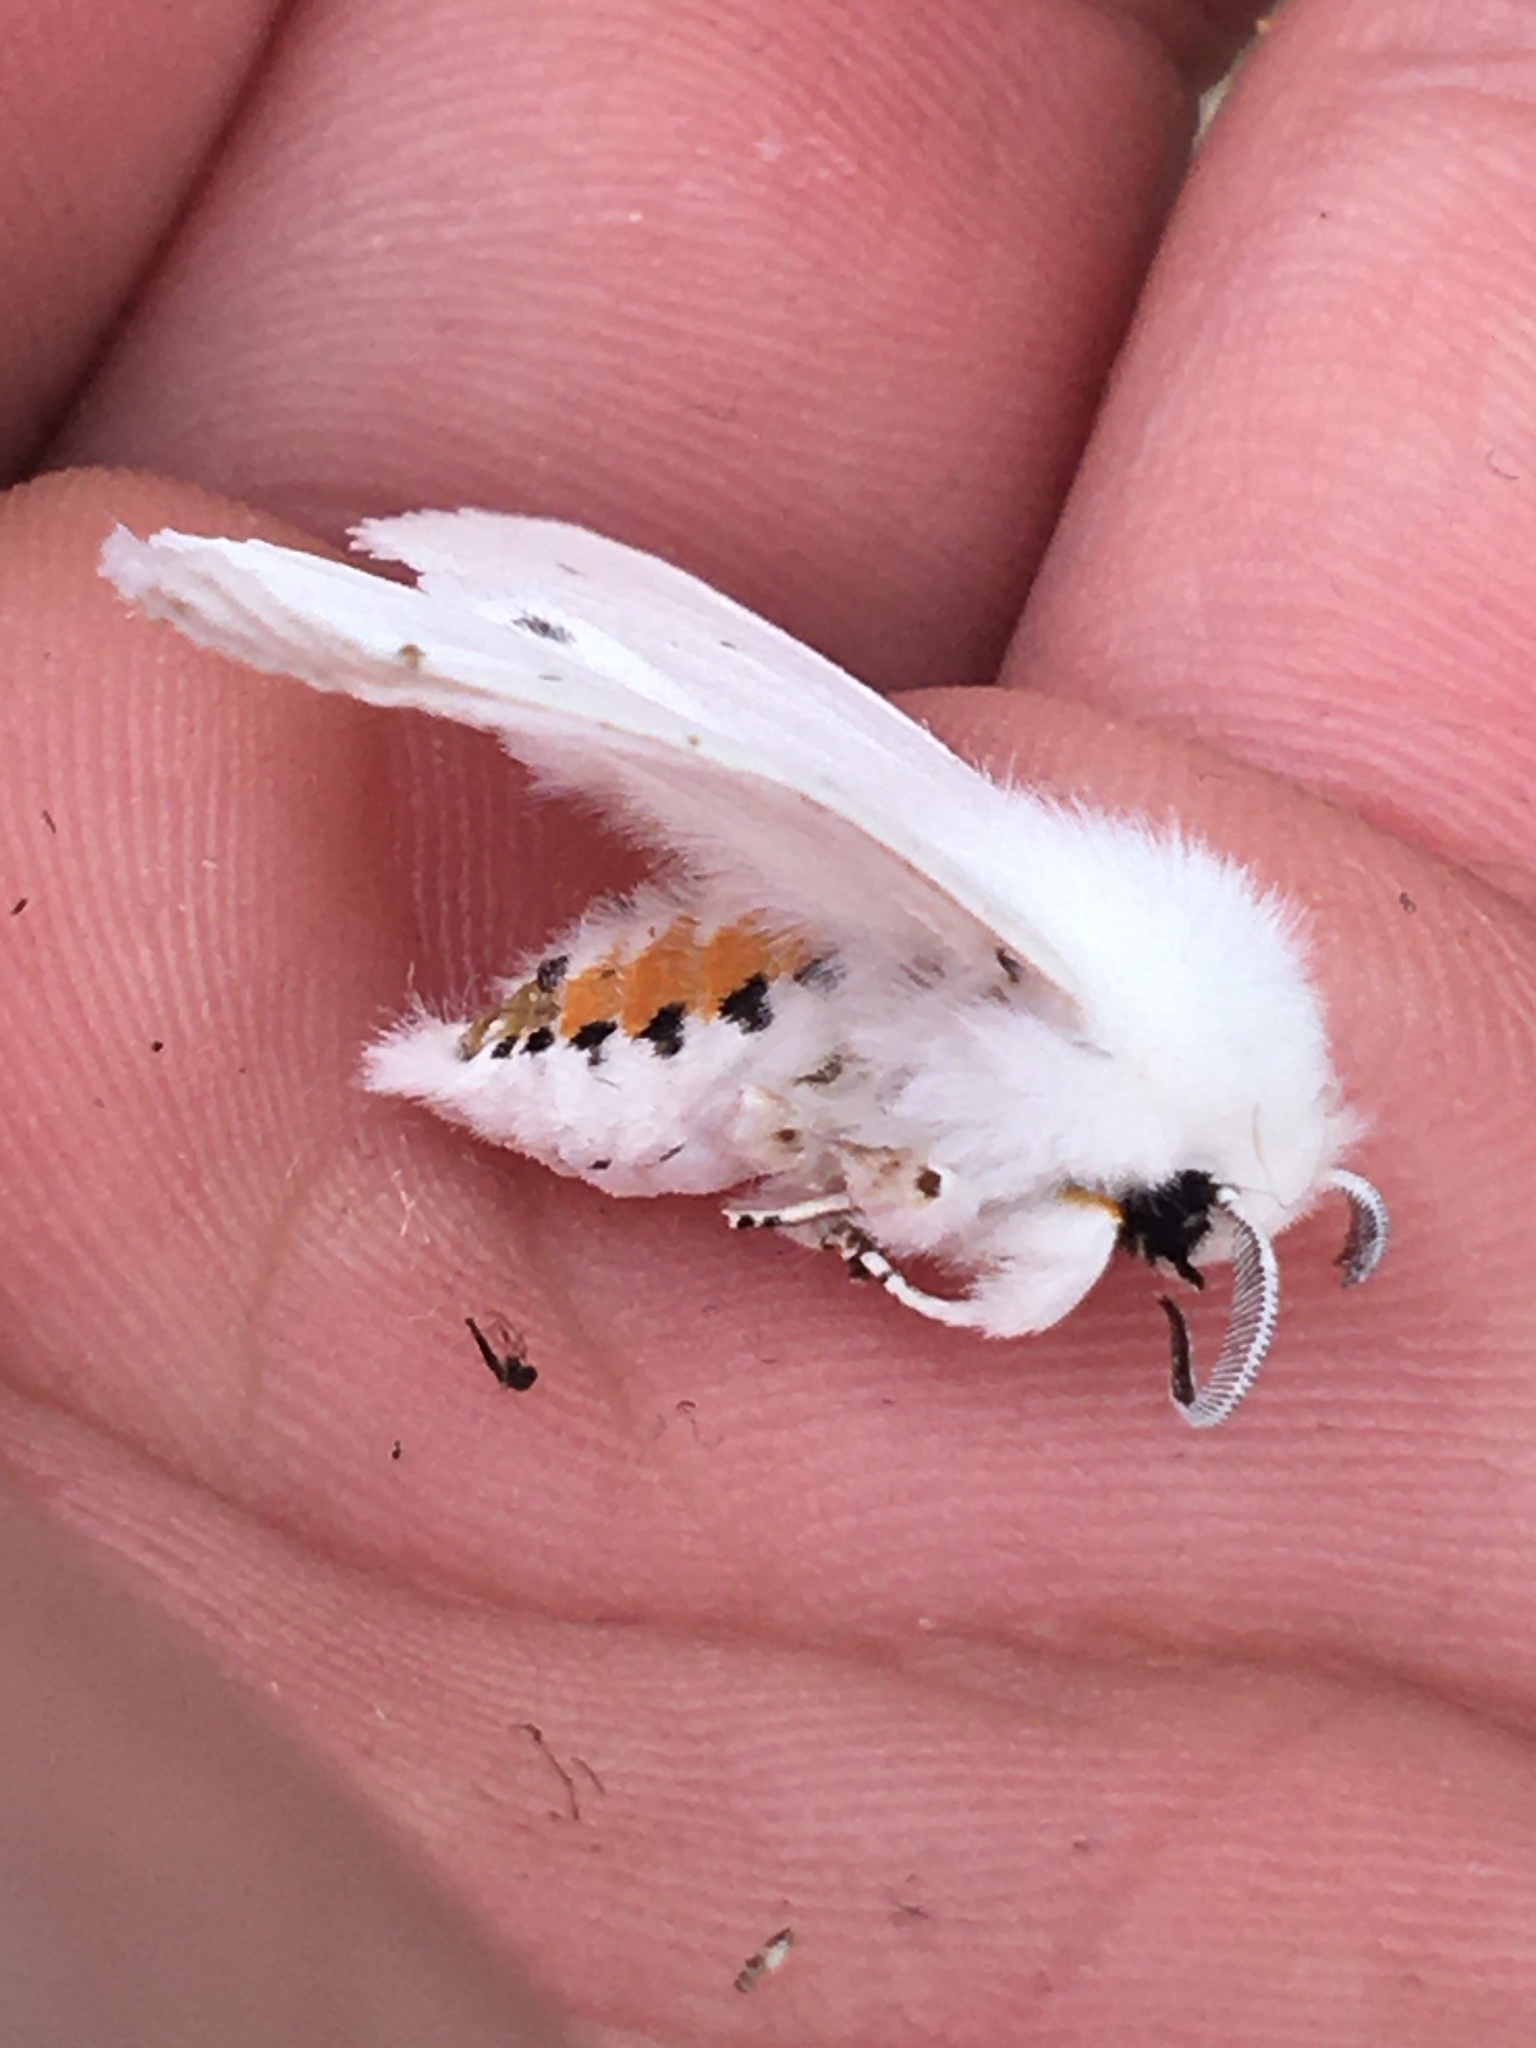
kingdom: Animalia
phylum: Arthropoda
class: Insecta
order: Lepidoptera
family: Erebidae
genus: Spilosoma
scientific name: Spilosoma virginica
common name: Virginia tiger moth
